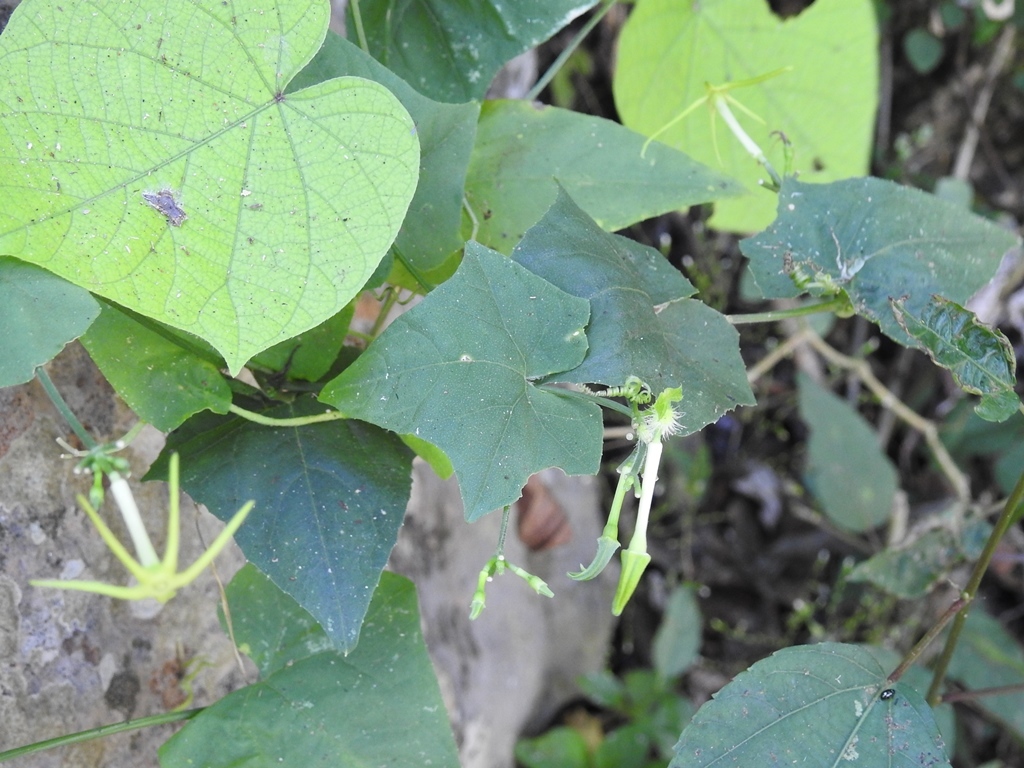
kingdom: Plantae
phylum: Tracheophyta
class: Magnoliopsida
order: Cucurbitales
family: Cucurbitaceae
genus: Cyclanthera
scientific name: Cyclanthera carthagenensis
